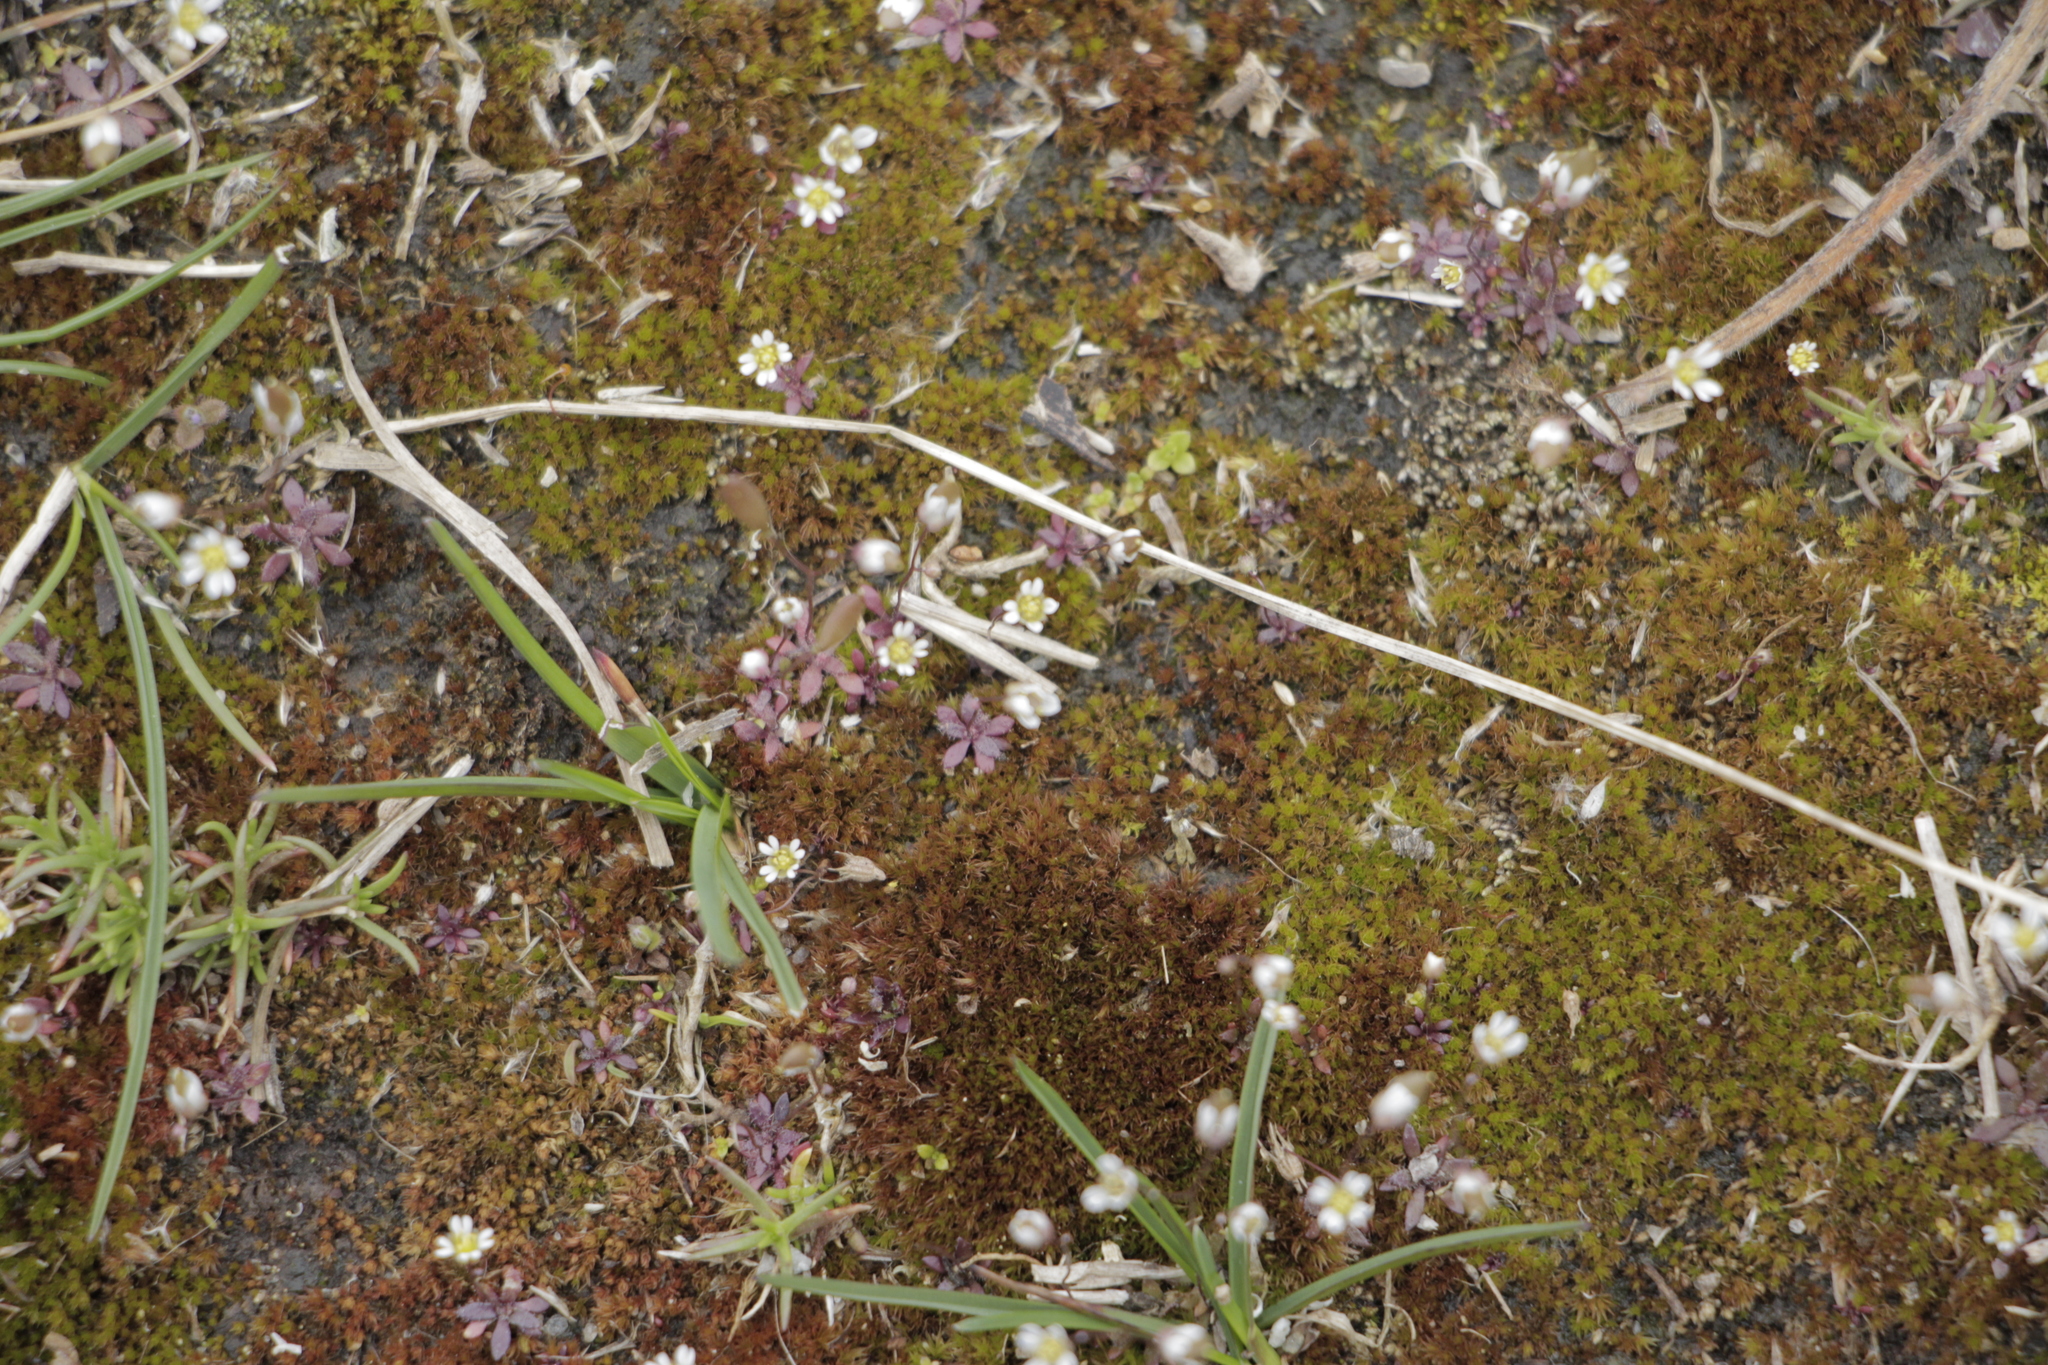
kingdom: Plantae
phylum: Tracheophyta
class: Magnoliopsida
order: Brassicales
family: Brassicaceae
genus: Draba
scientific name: Draba verna
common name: Spring draba
